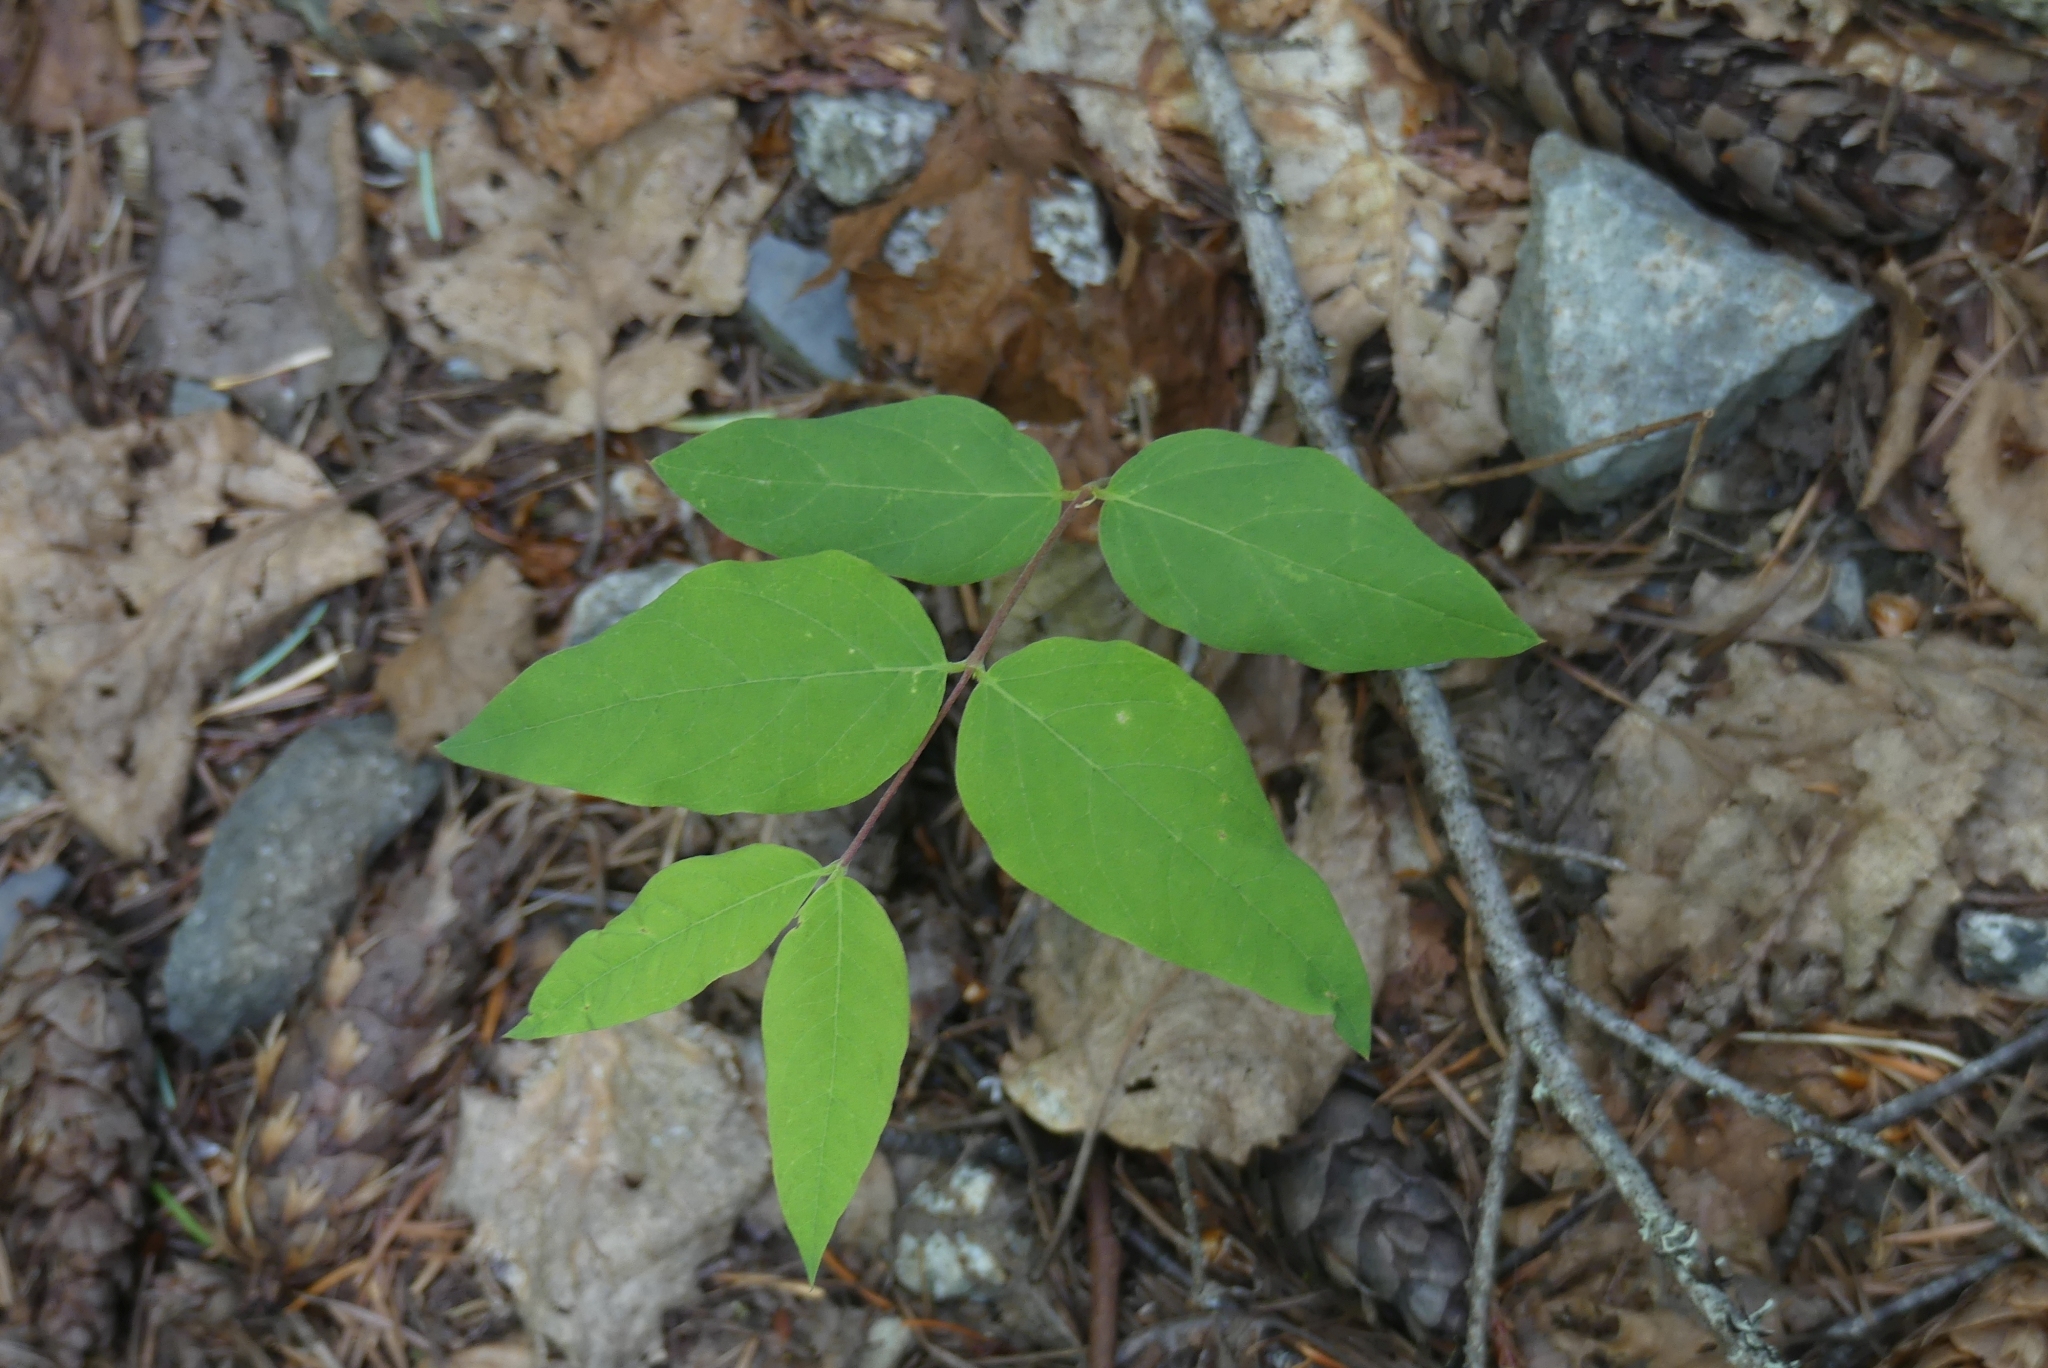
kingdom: Plantae
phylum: Tracheophyta
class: Magnoliopsida
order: Gentianales
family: Apocynaceae
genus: Apocynum
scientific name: Apocynum androsaemifolium
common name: Spreading dogbane
